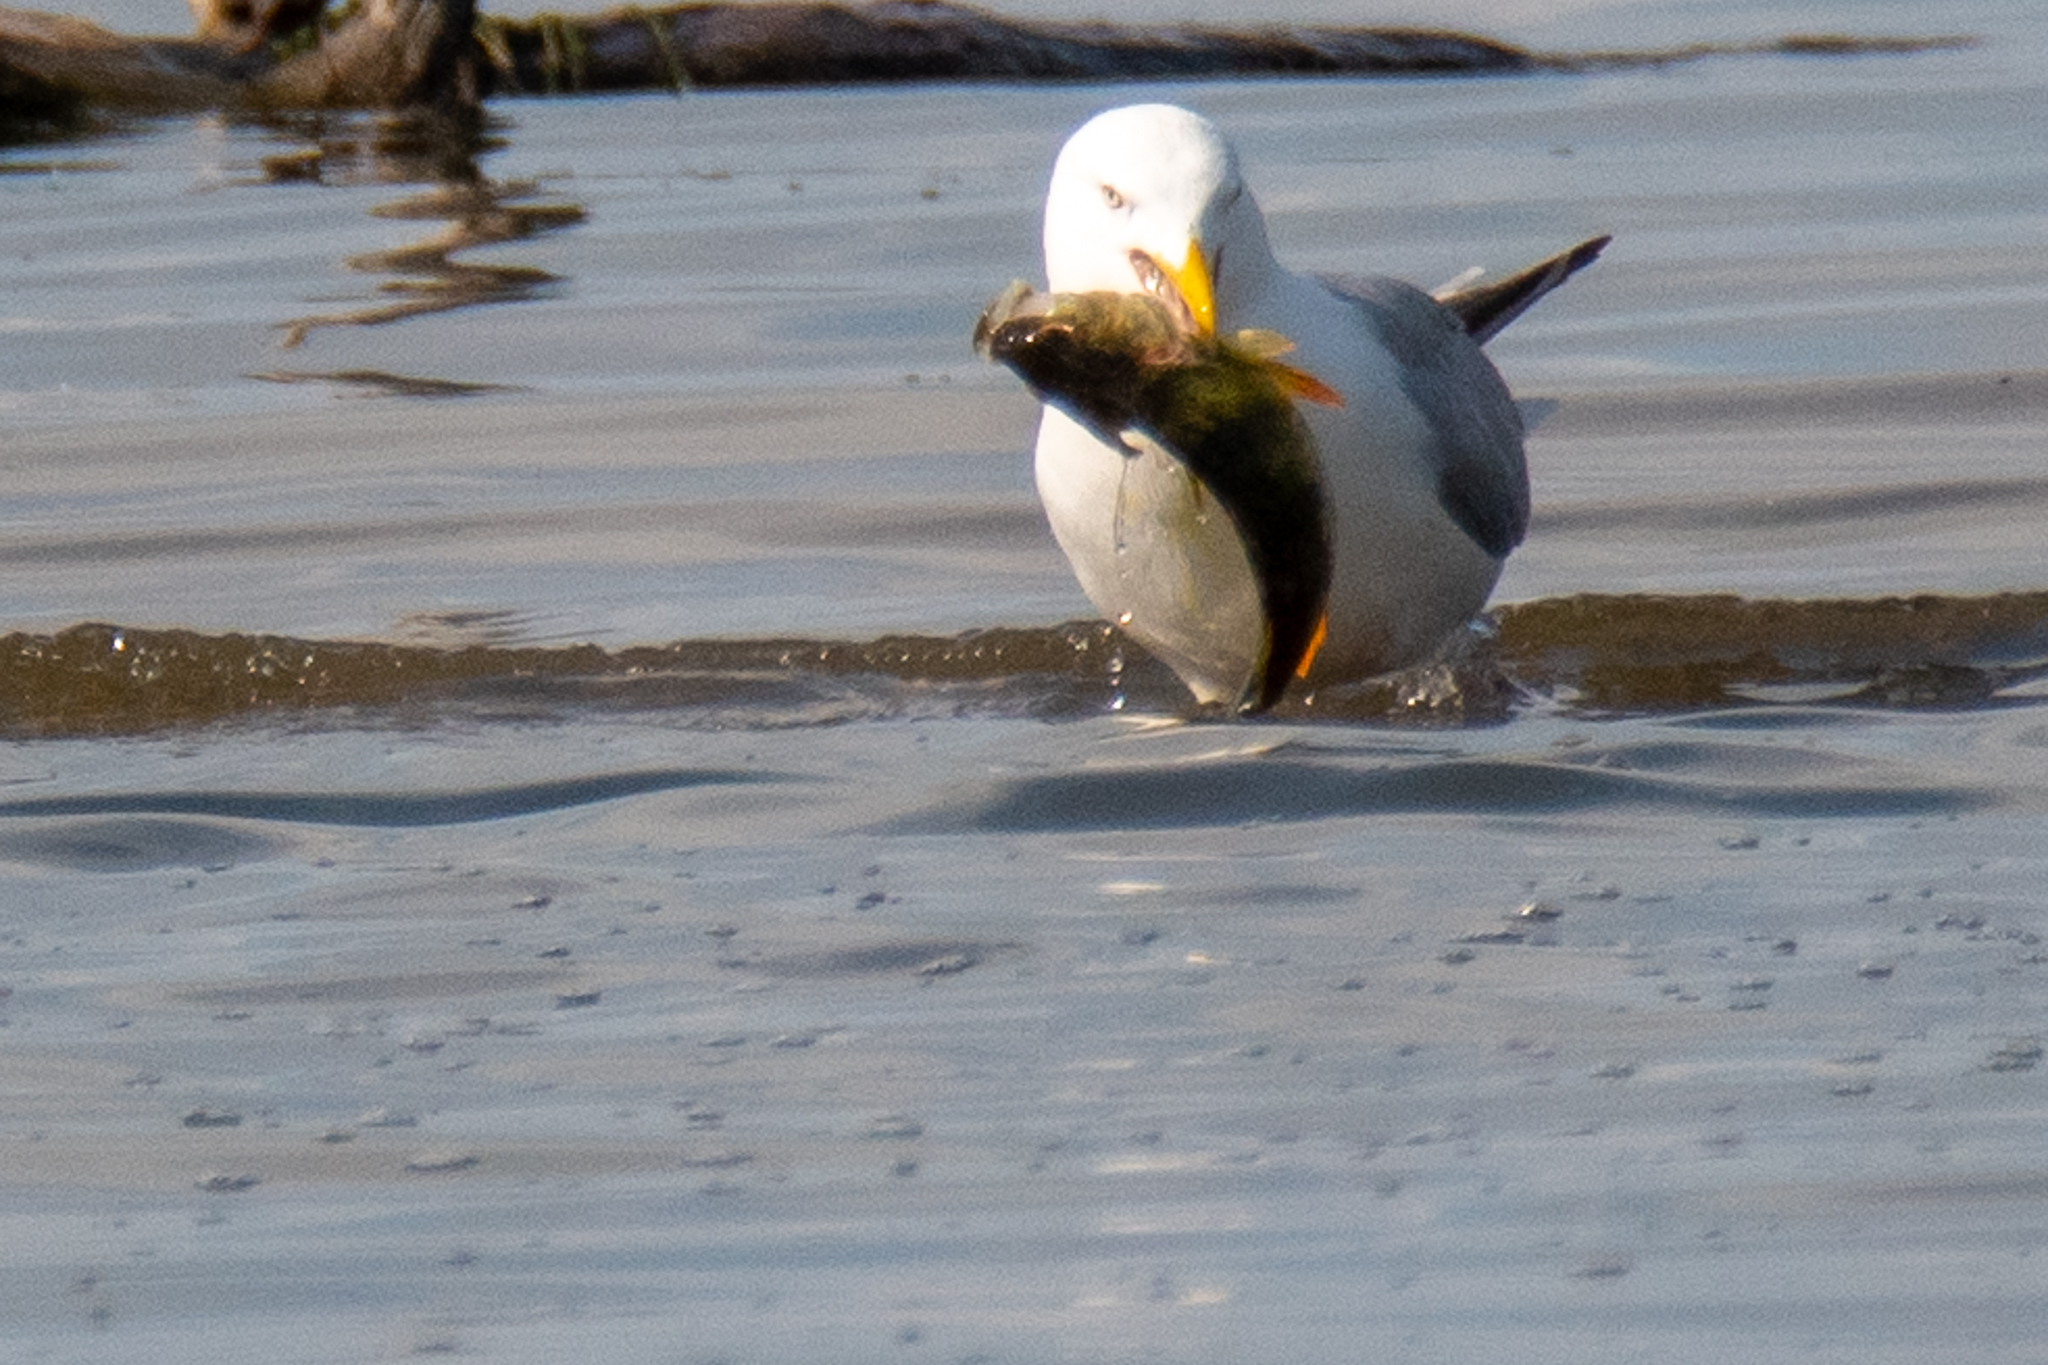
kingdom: Animalia
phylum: Chordata
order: Perciformes
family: Percidae
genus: Perca
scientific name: Perca flavescens
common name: Yellow perch
